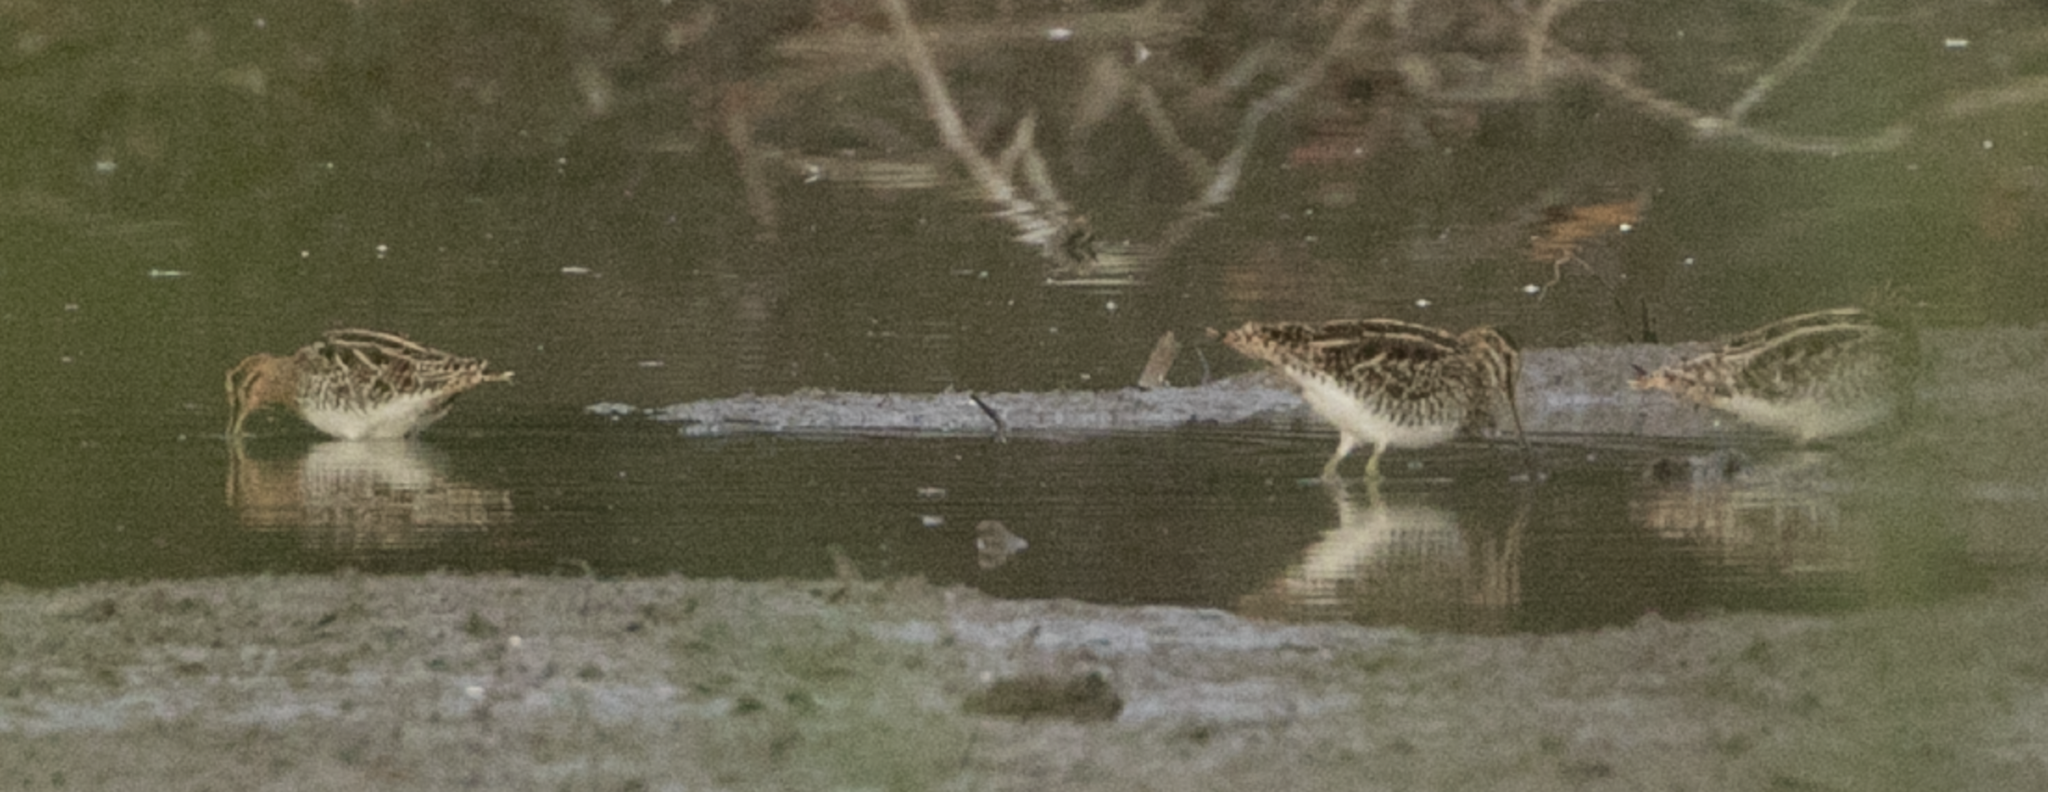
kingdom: Animalia
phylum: Chordata
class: Aves
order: Charadriiformes
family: Scolopacidae
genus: Gallinago
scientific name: Gallinago gallinago
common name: Common snipe
